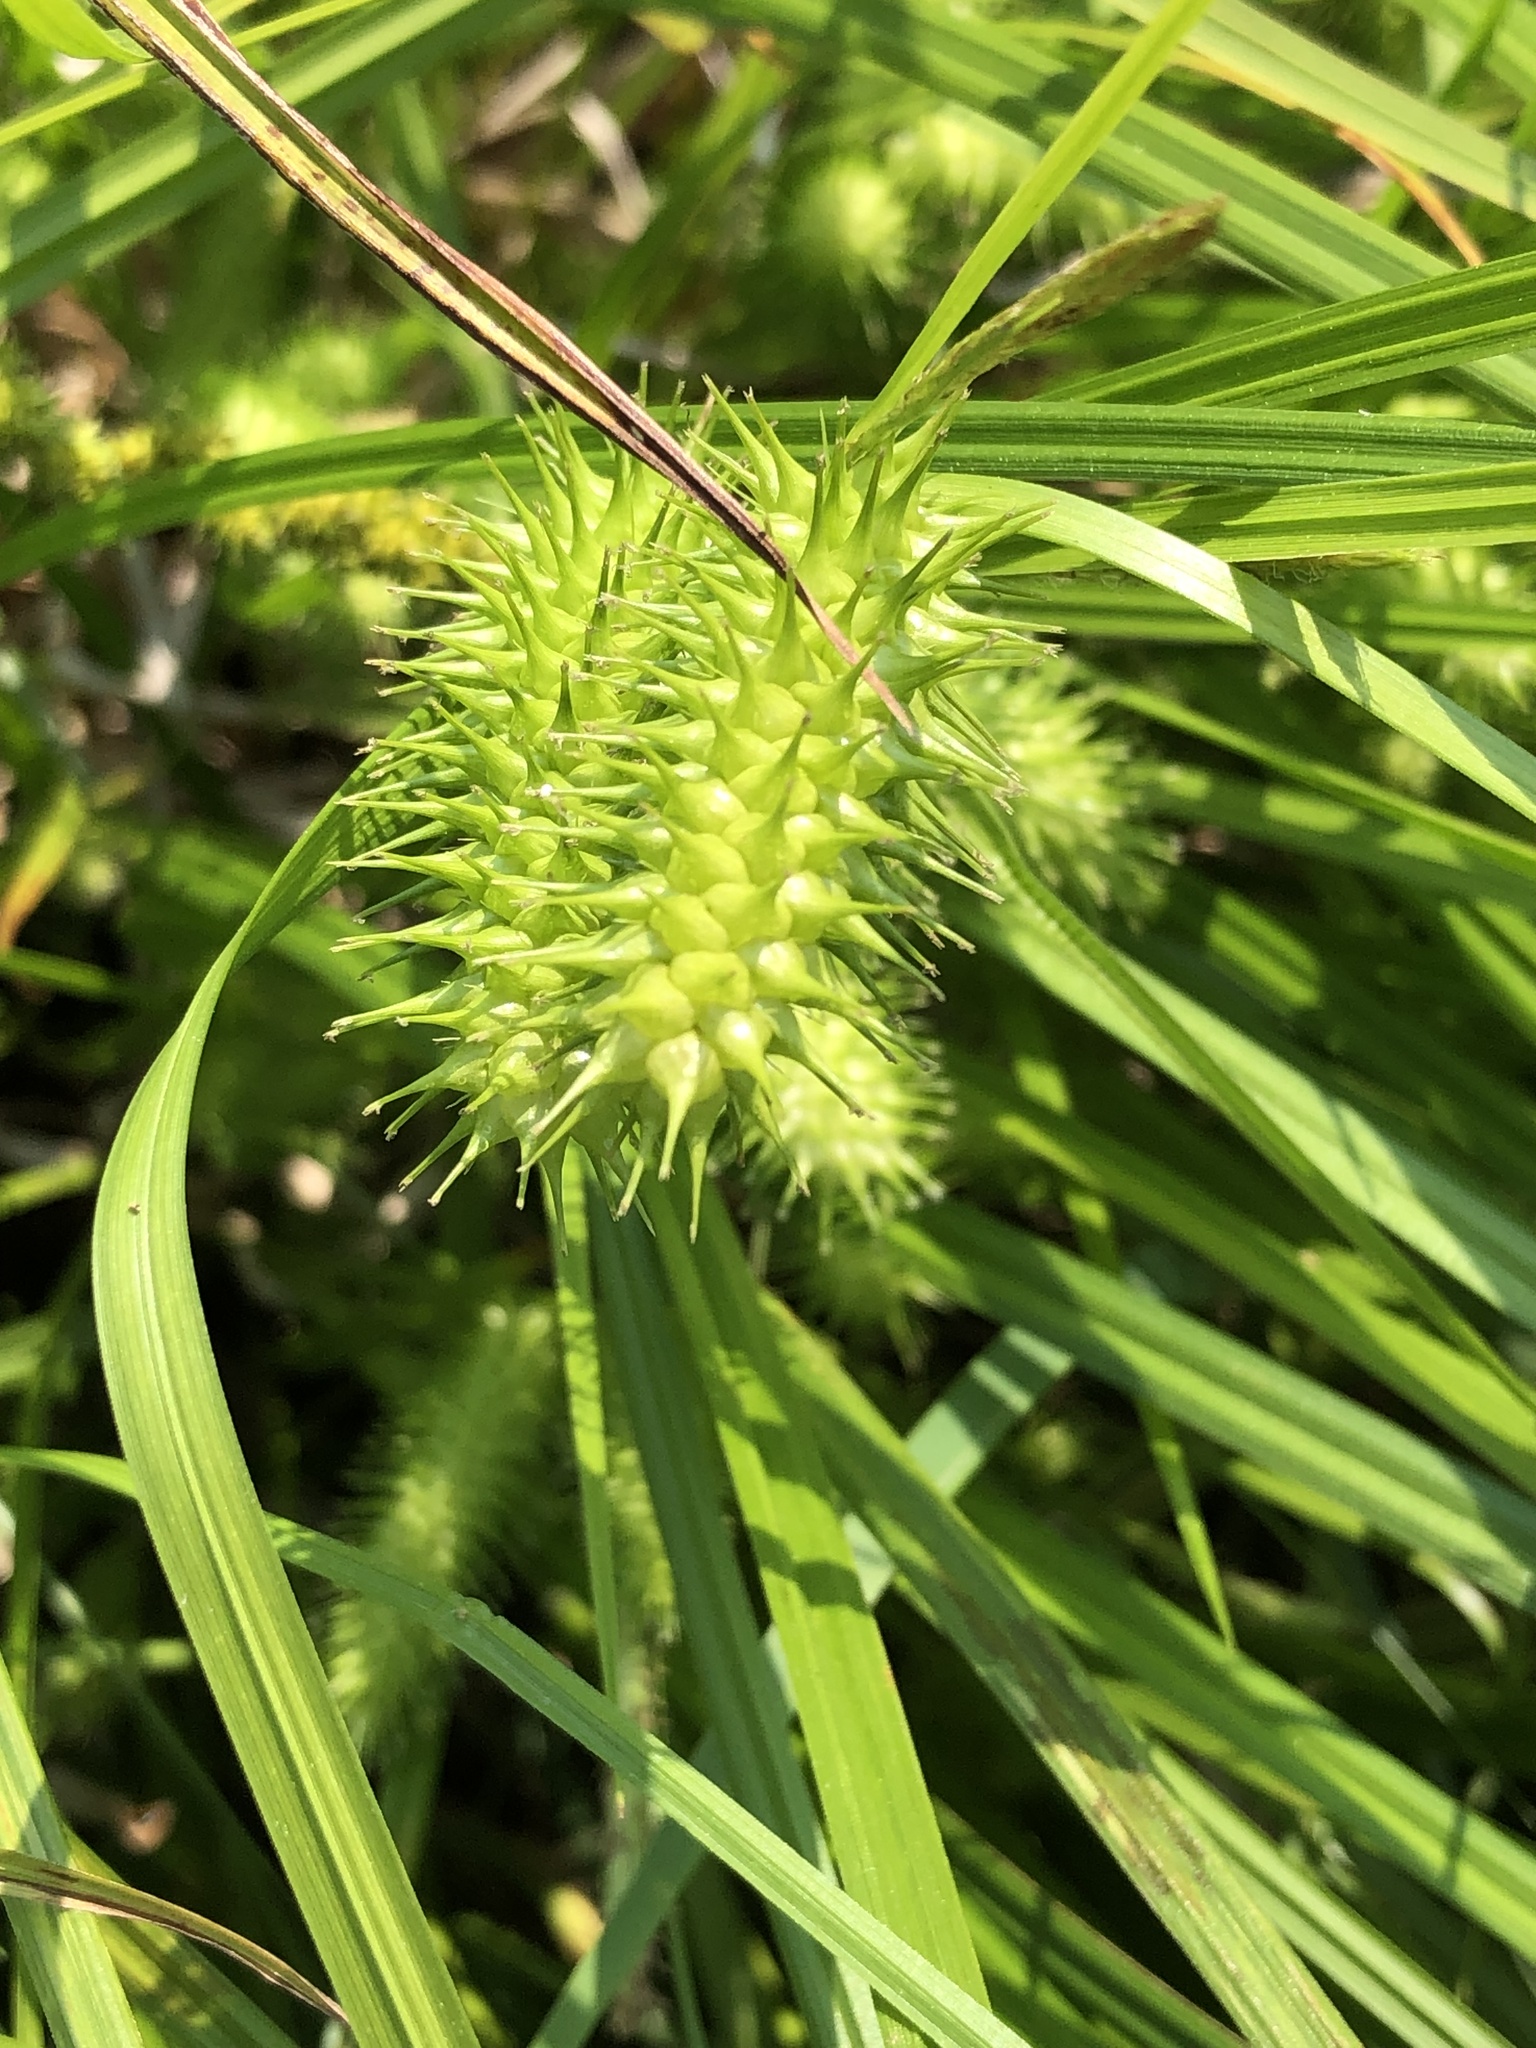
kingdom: Plantae
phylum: Tracheophyta
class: Liliopsida
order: Poales
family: Cyperaceae
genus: Carex
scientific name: Carex lurida
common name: Sallow sedge
